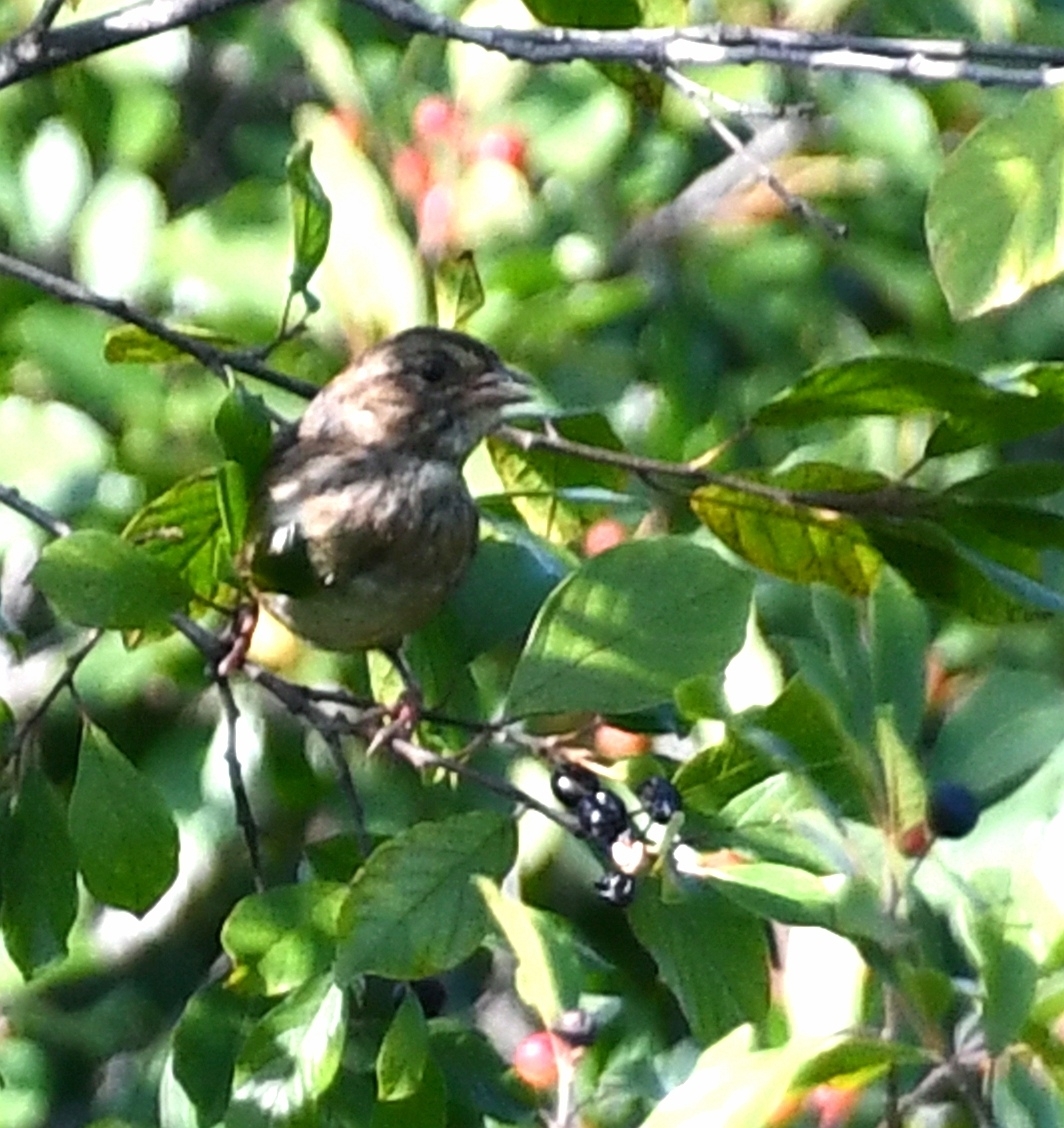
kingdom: Animalia
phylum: Chordata
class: Aves
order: Passeriformes
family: Passerellidae
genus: Melospiza
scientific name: Melospiza georgiana
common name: Swamp sparrow
